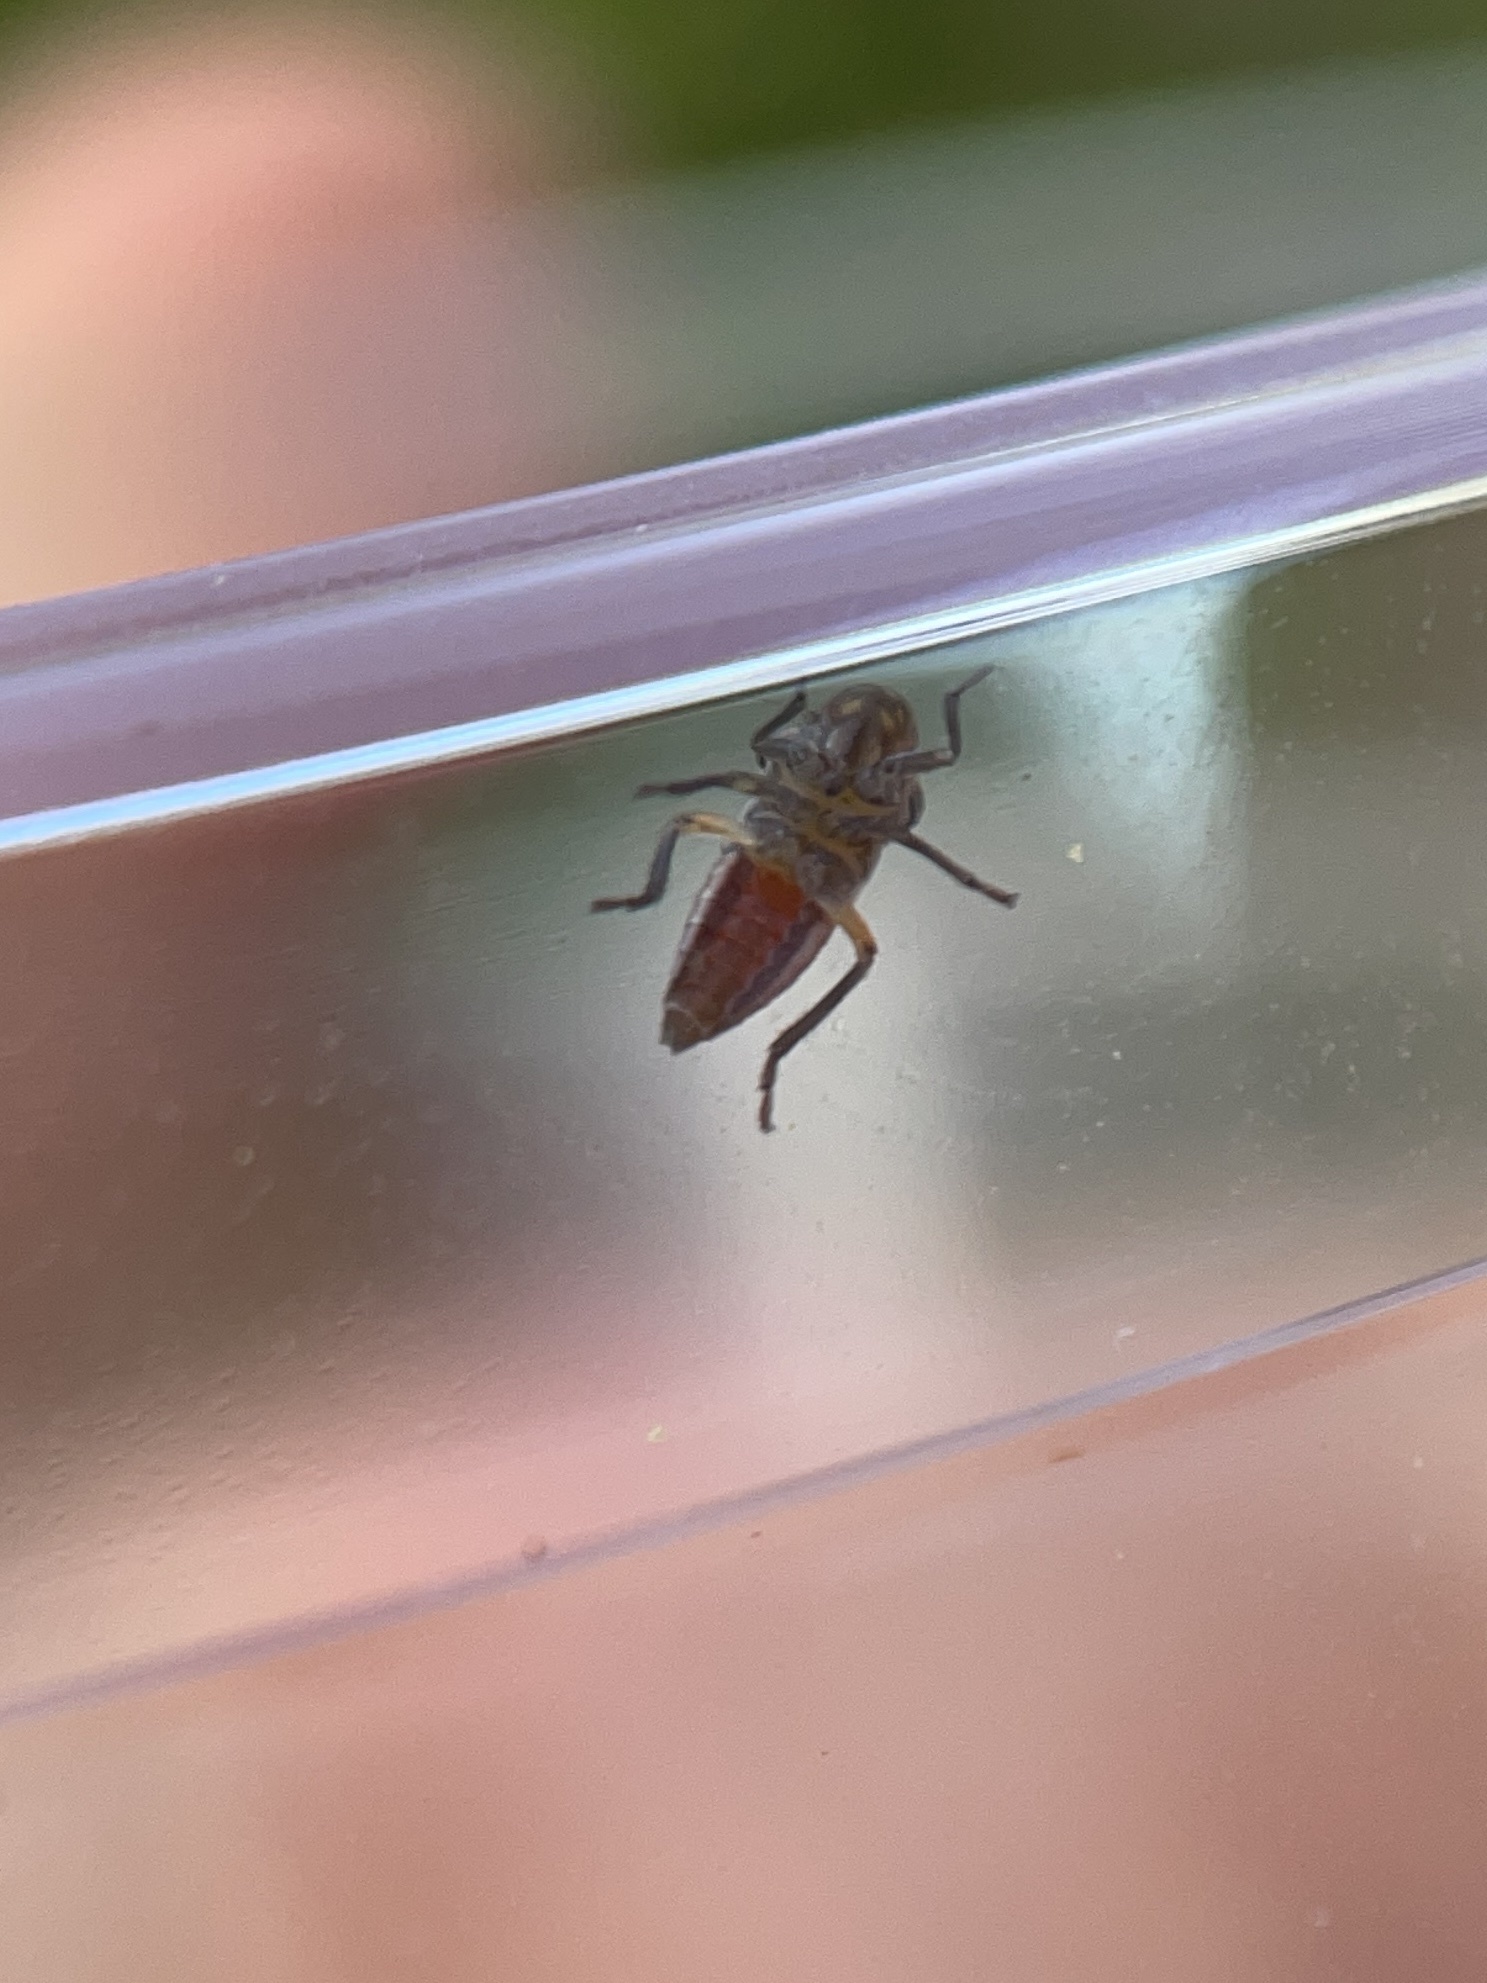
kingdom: Animalia
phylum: Arthropoda
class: Insecta
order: Hemiptera
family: Cicadellidae
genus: Cuerna
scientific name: Cuerna costalis
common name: Lateral-lined sharpshooter
